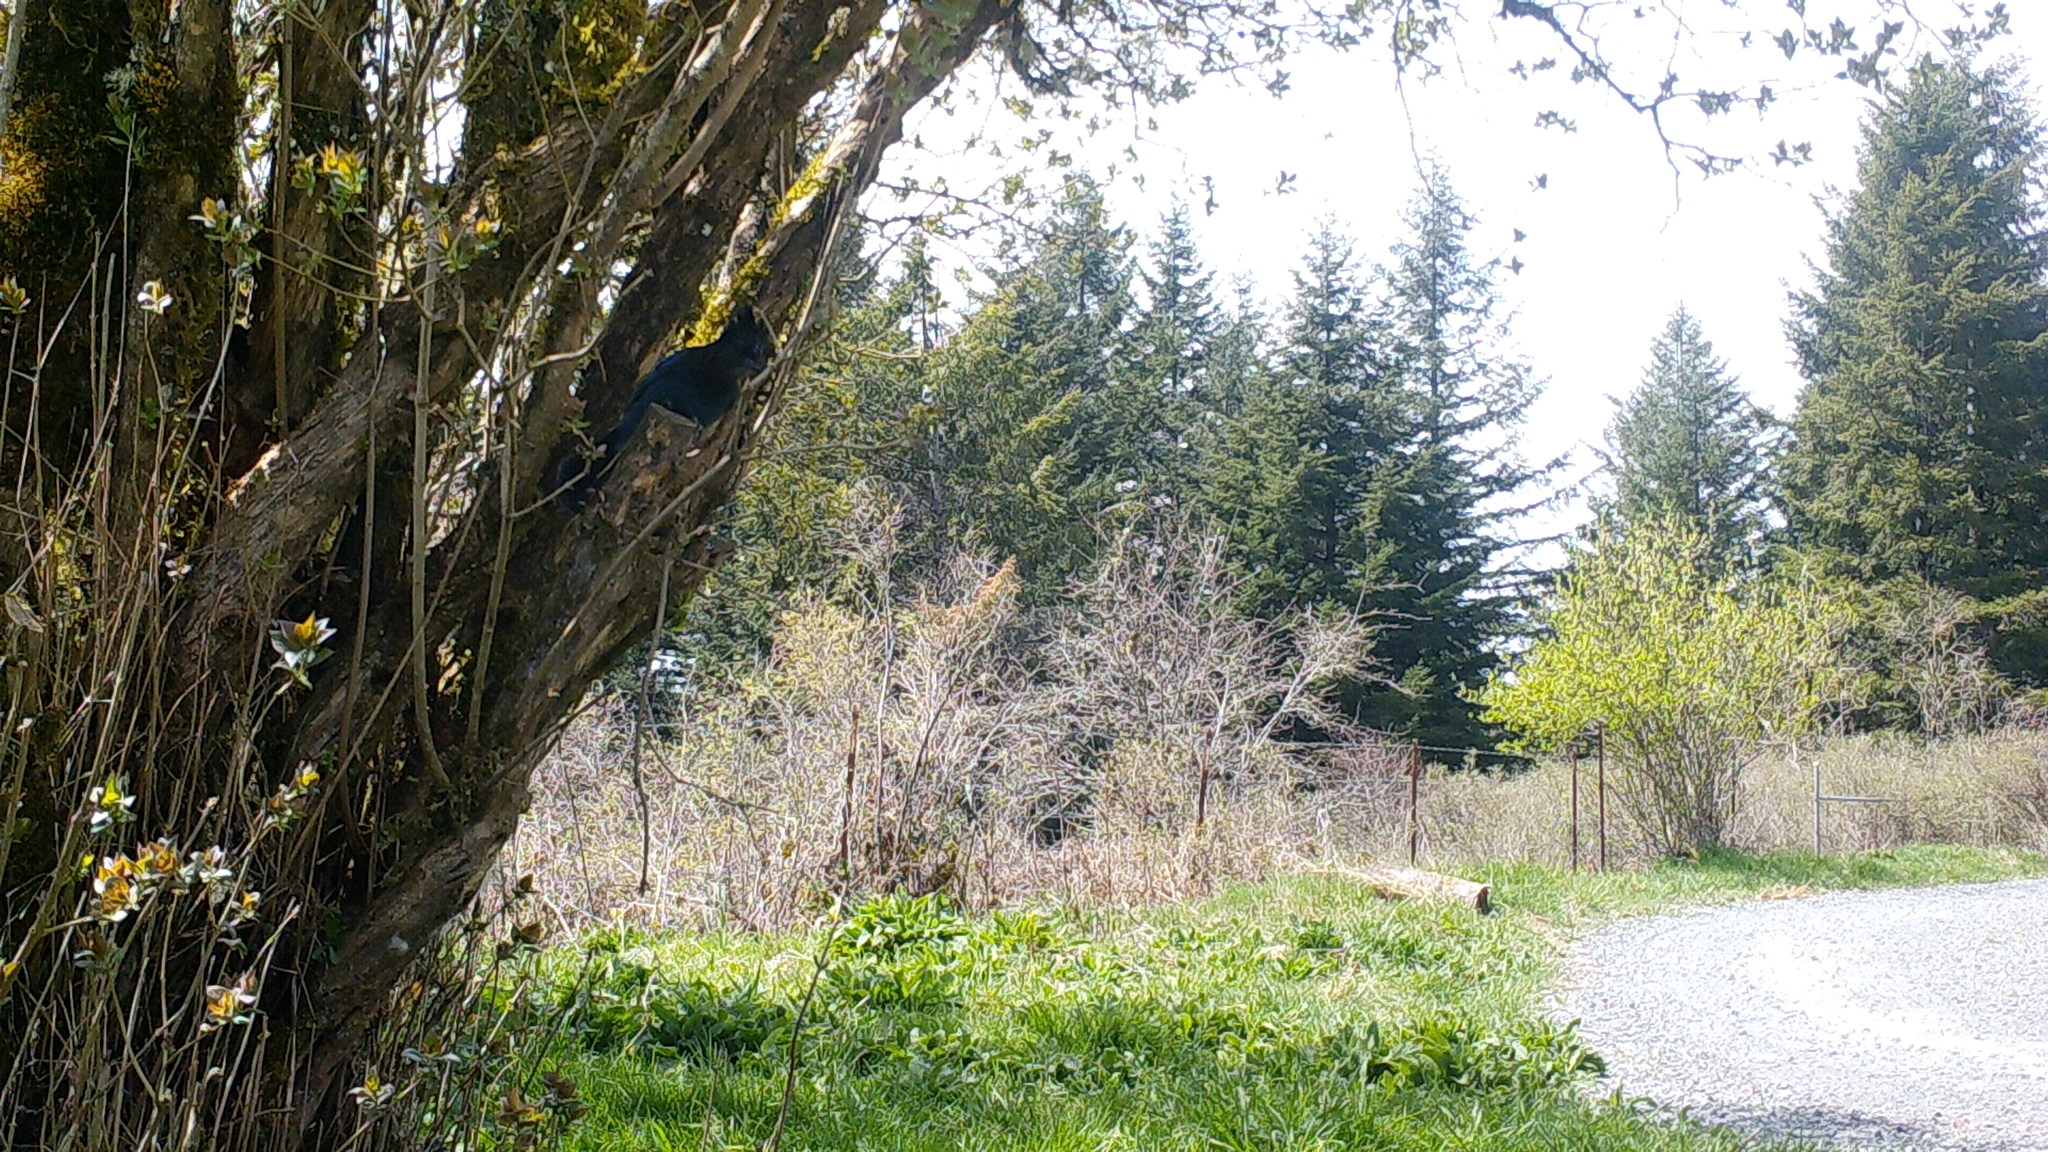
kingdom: Animalia
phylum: Chordata
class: Aves
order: Passeriformes
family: Corvidae
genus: Cyanocitta
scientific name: Cyanocitta stelleri
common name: Steller's jay
